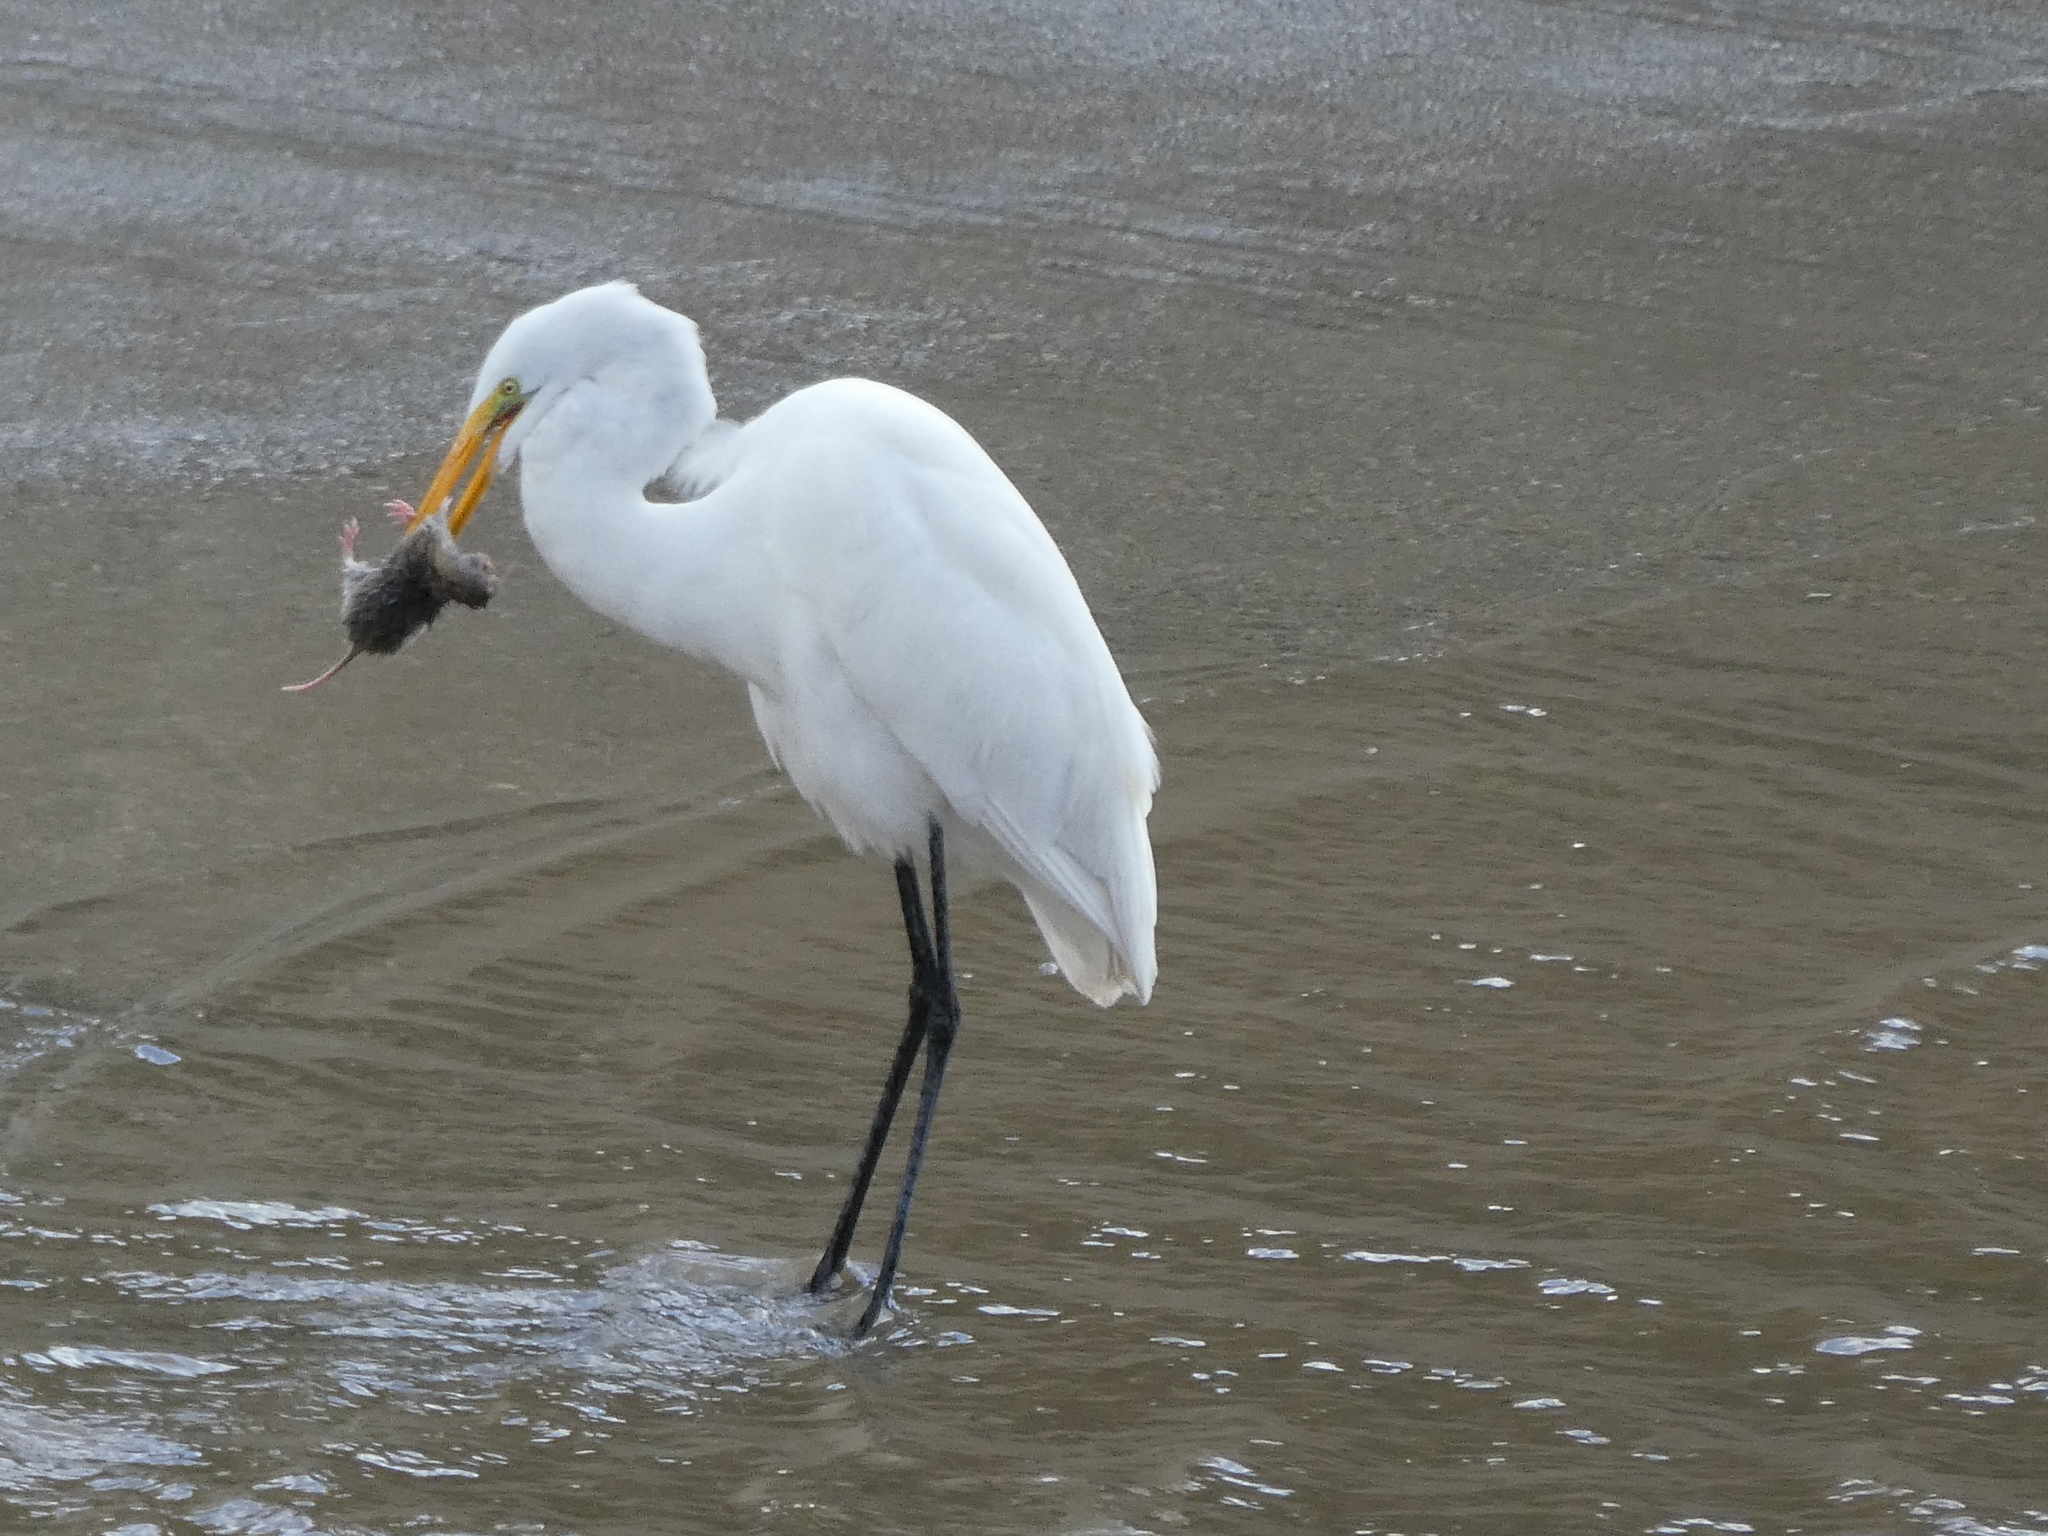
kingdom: Animalia
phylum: Chordata
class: Aves
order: Pelecaniformes
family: Ardeidae
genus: Ardea
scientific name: Ardea alba
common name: Great egret
